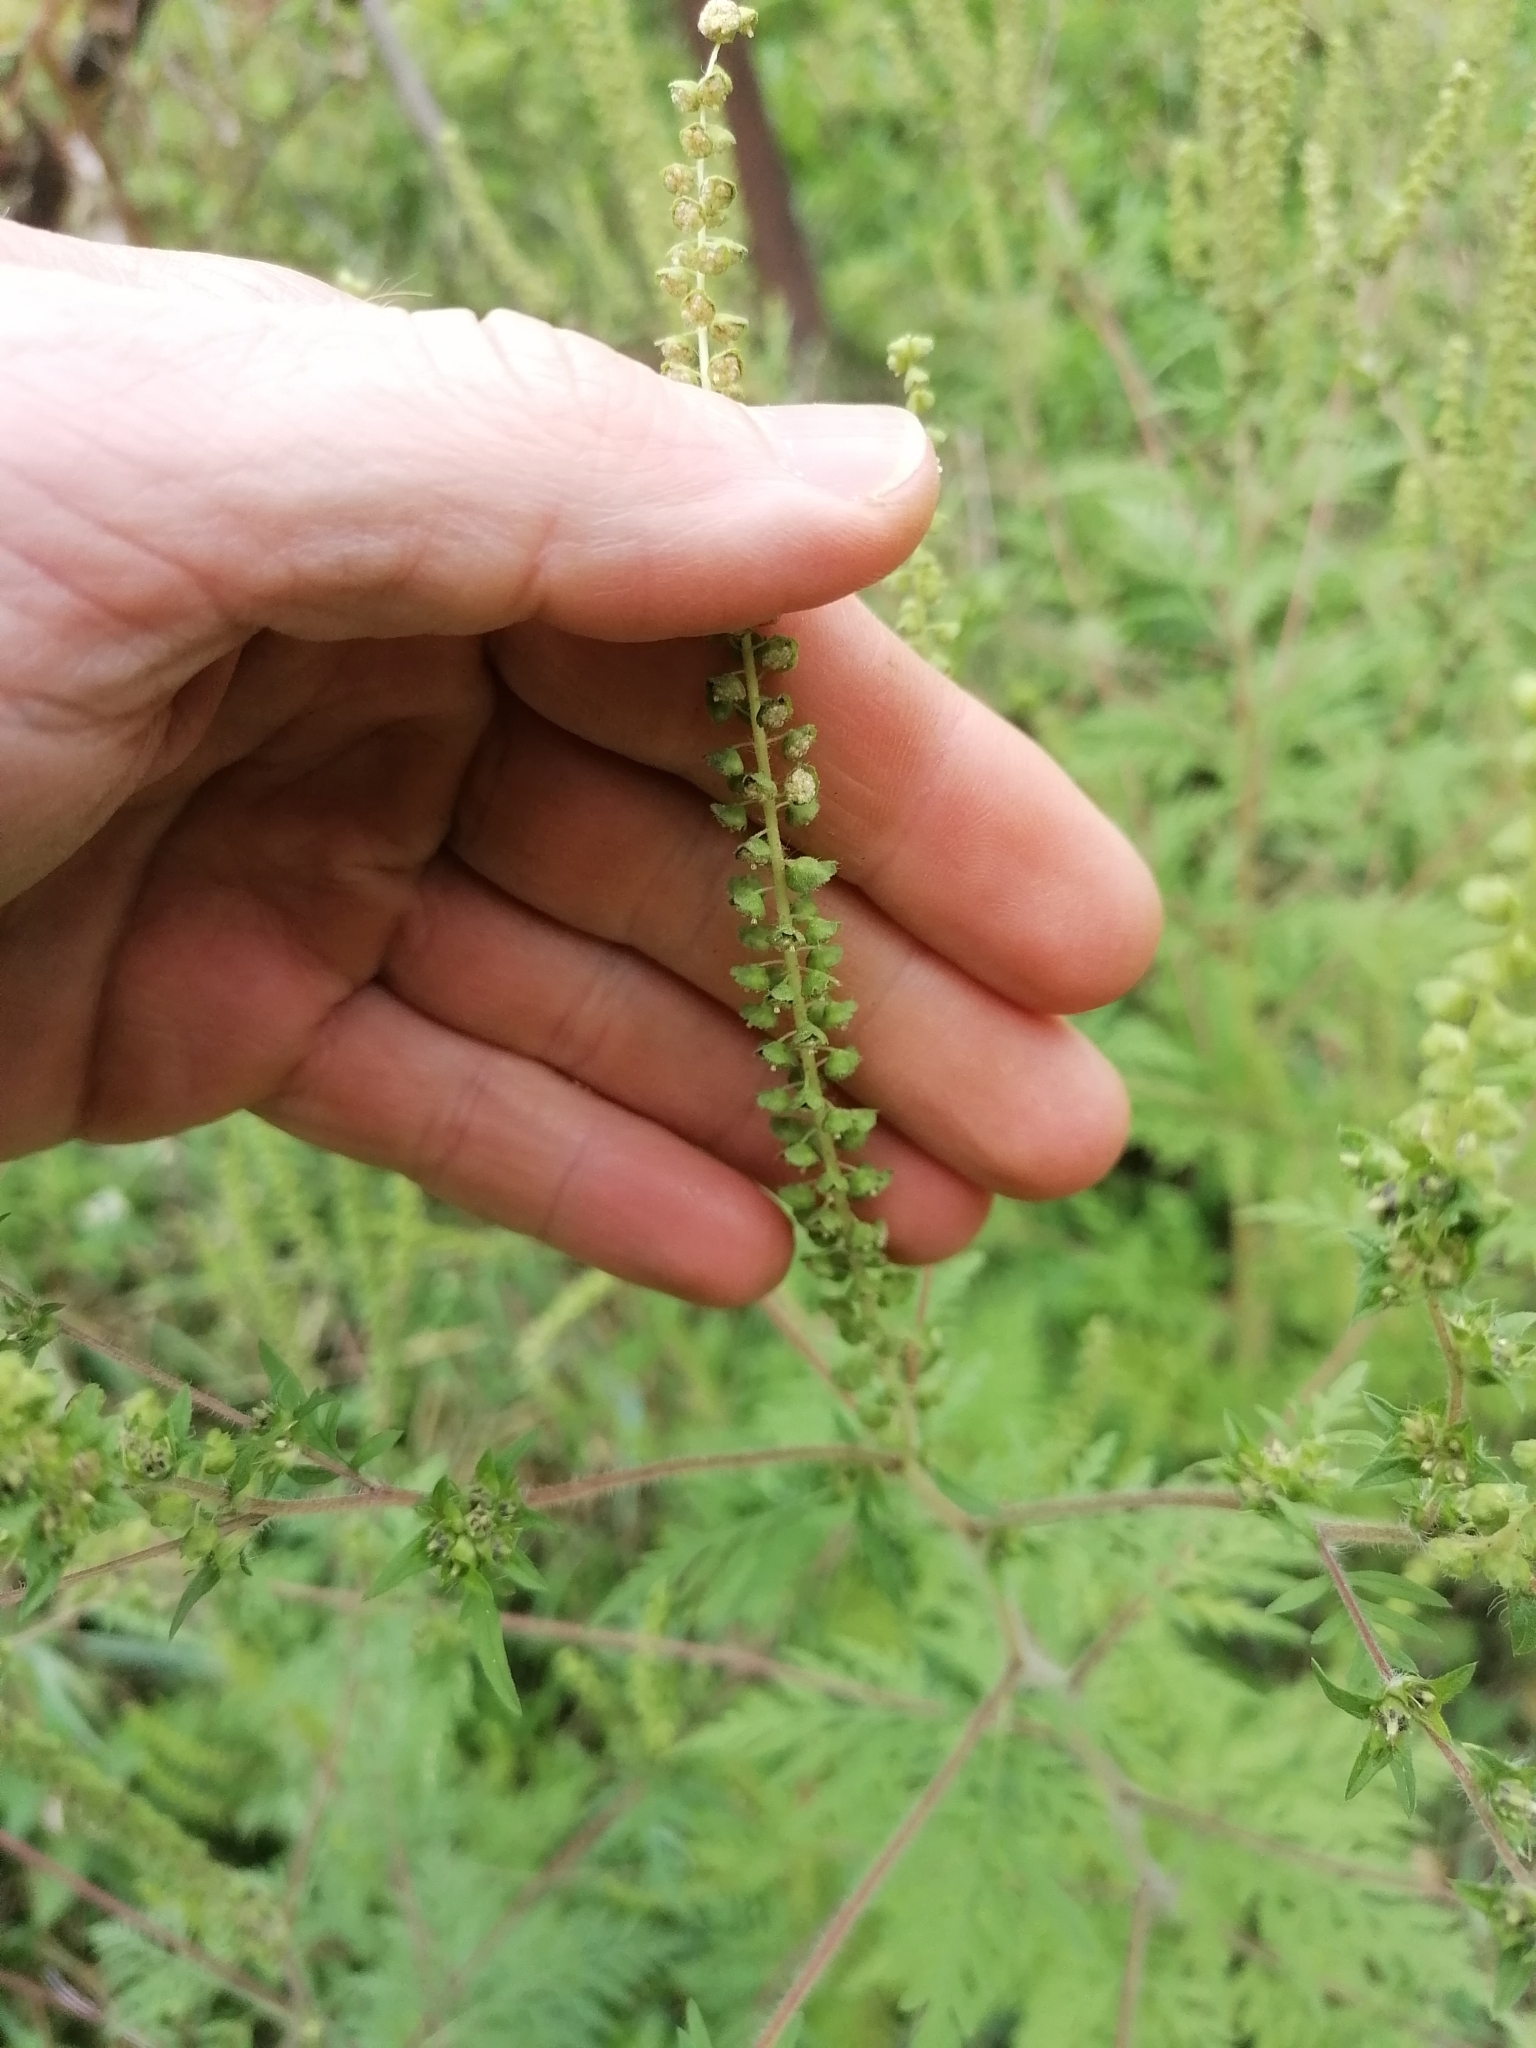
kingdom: Plantae
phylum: Tracheophyta
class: Magnoliopsida
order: Asterales
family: Asteraceae
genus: Ambrosia
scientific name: Ambrosia artemisiifolia
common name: Annual ragweed
